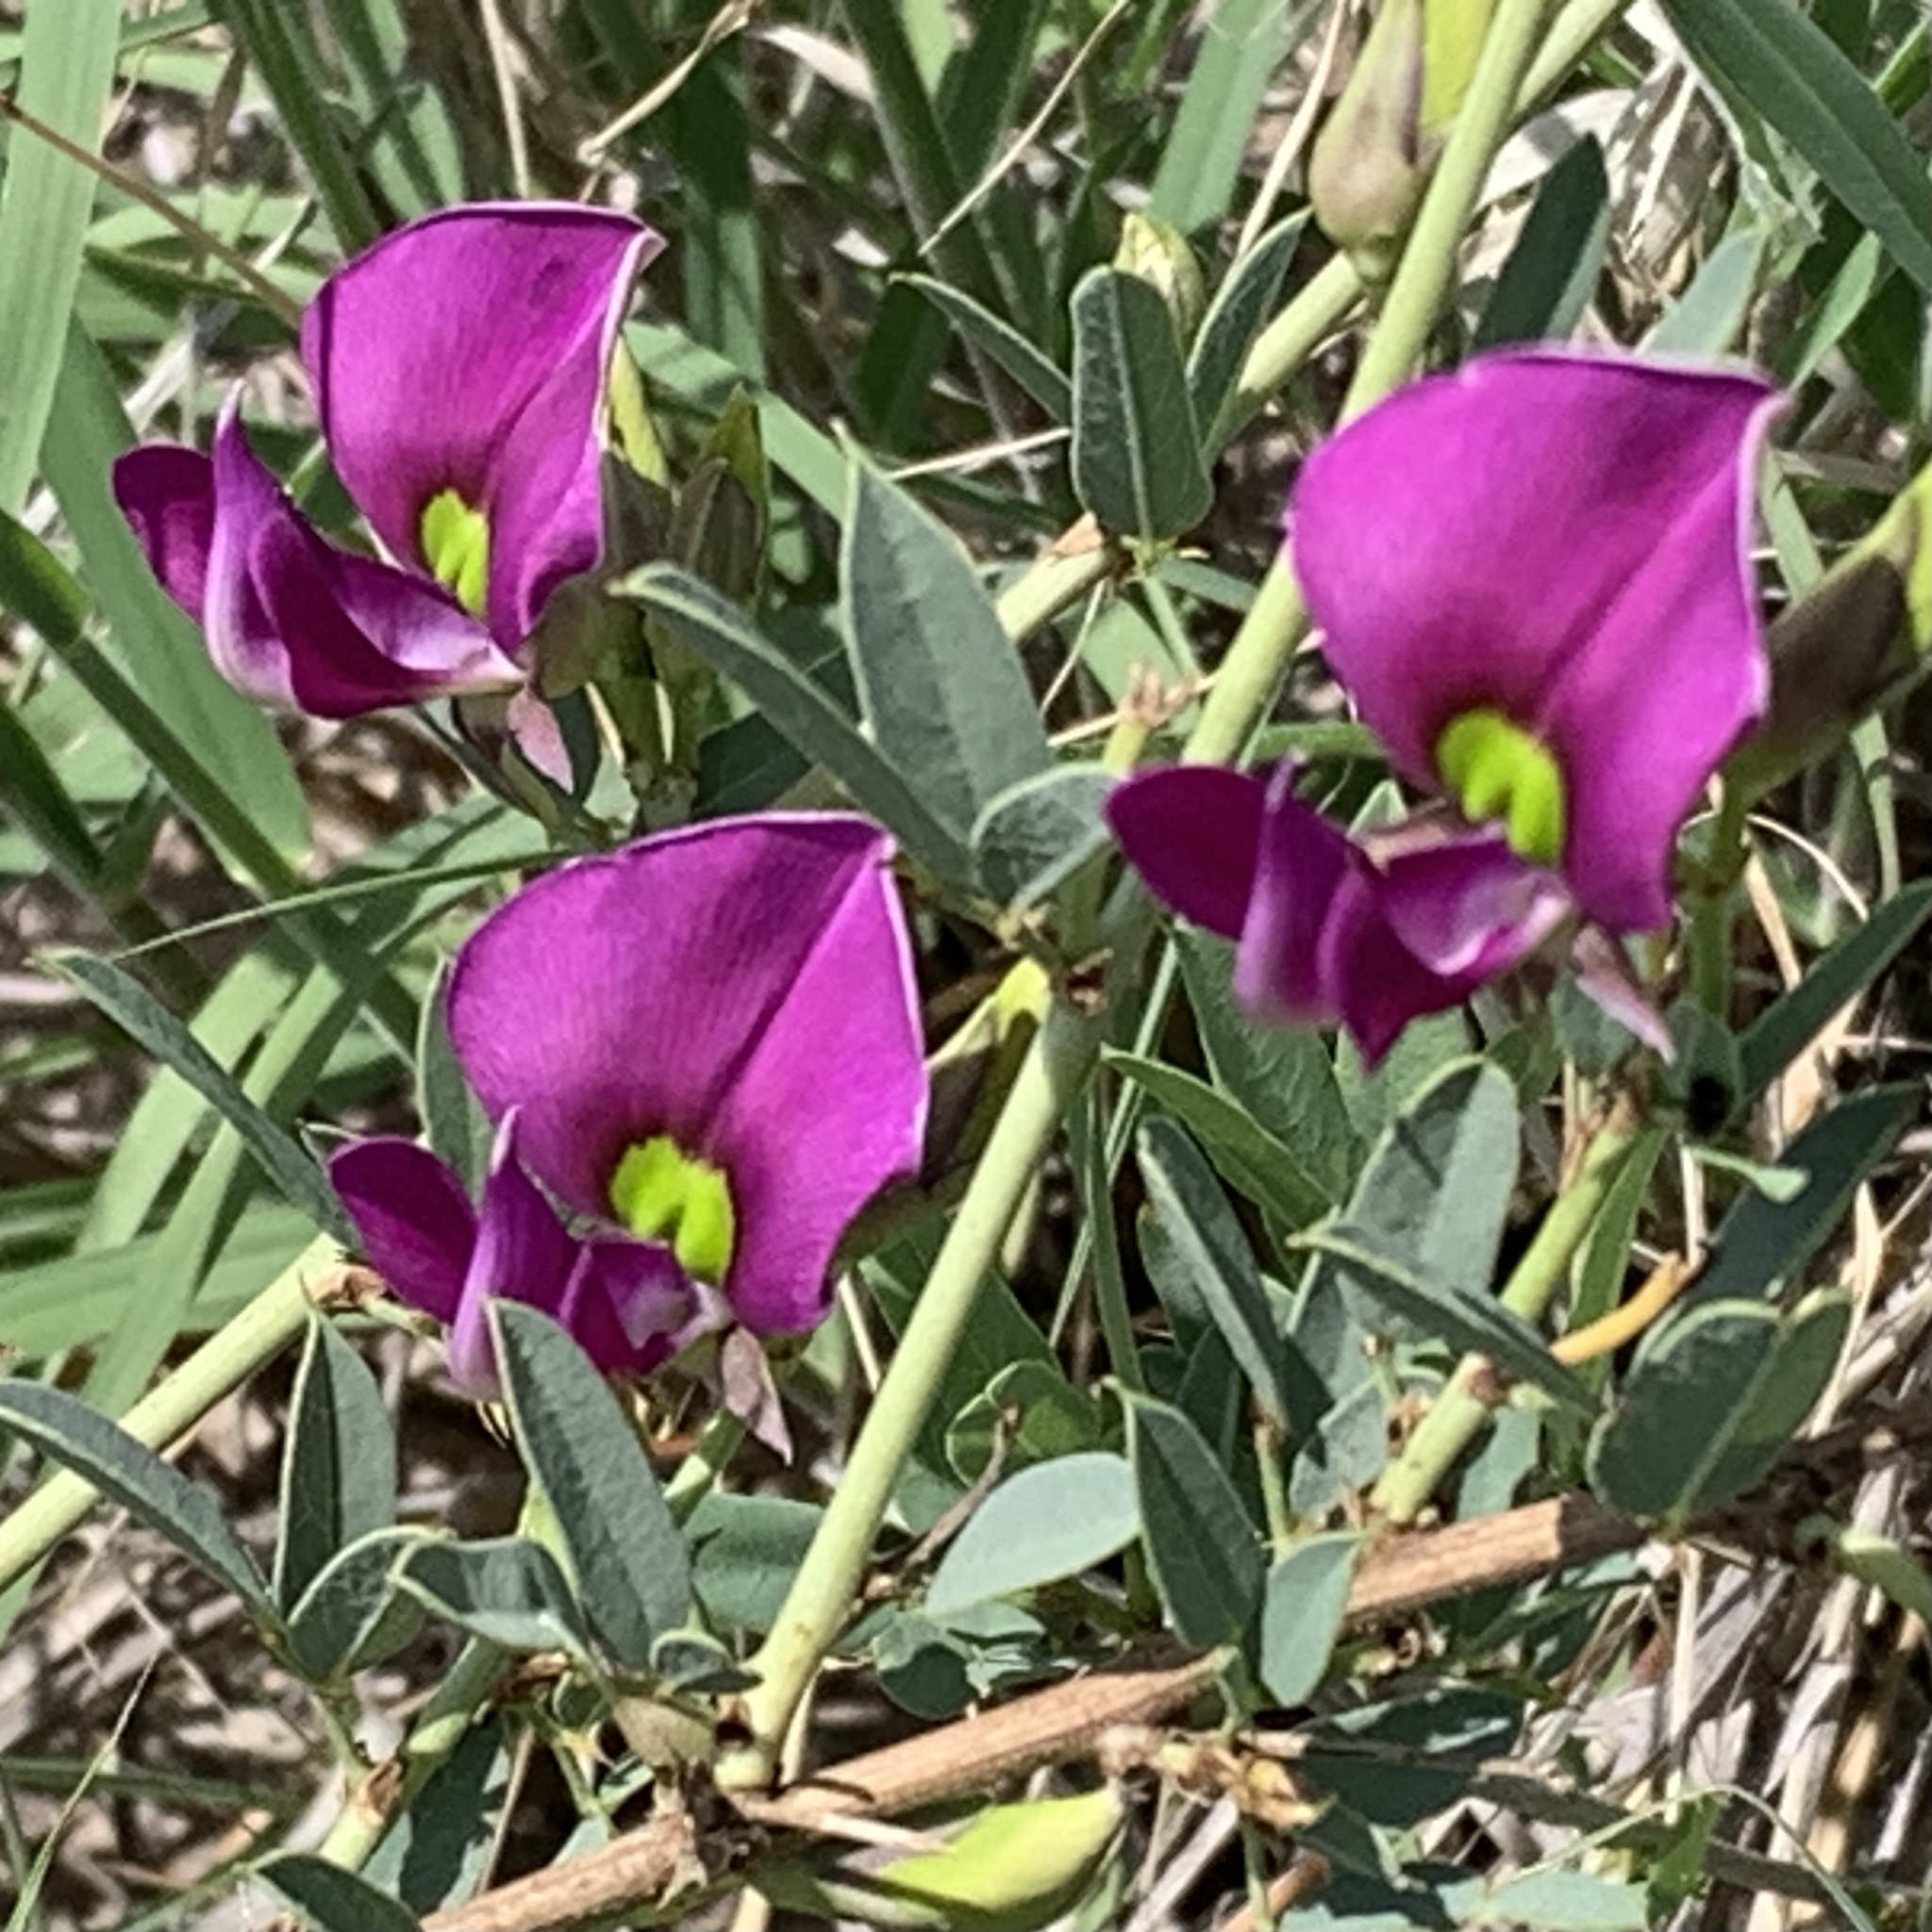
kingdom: Plantae
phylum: Tracheophyta
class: Magnoliopsida
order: Fabales
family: Fabaceae
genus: Otoptera
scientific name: Otoptera burchellii
